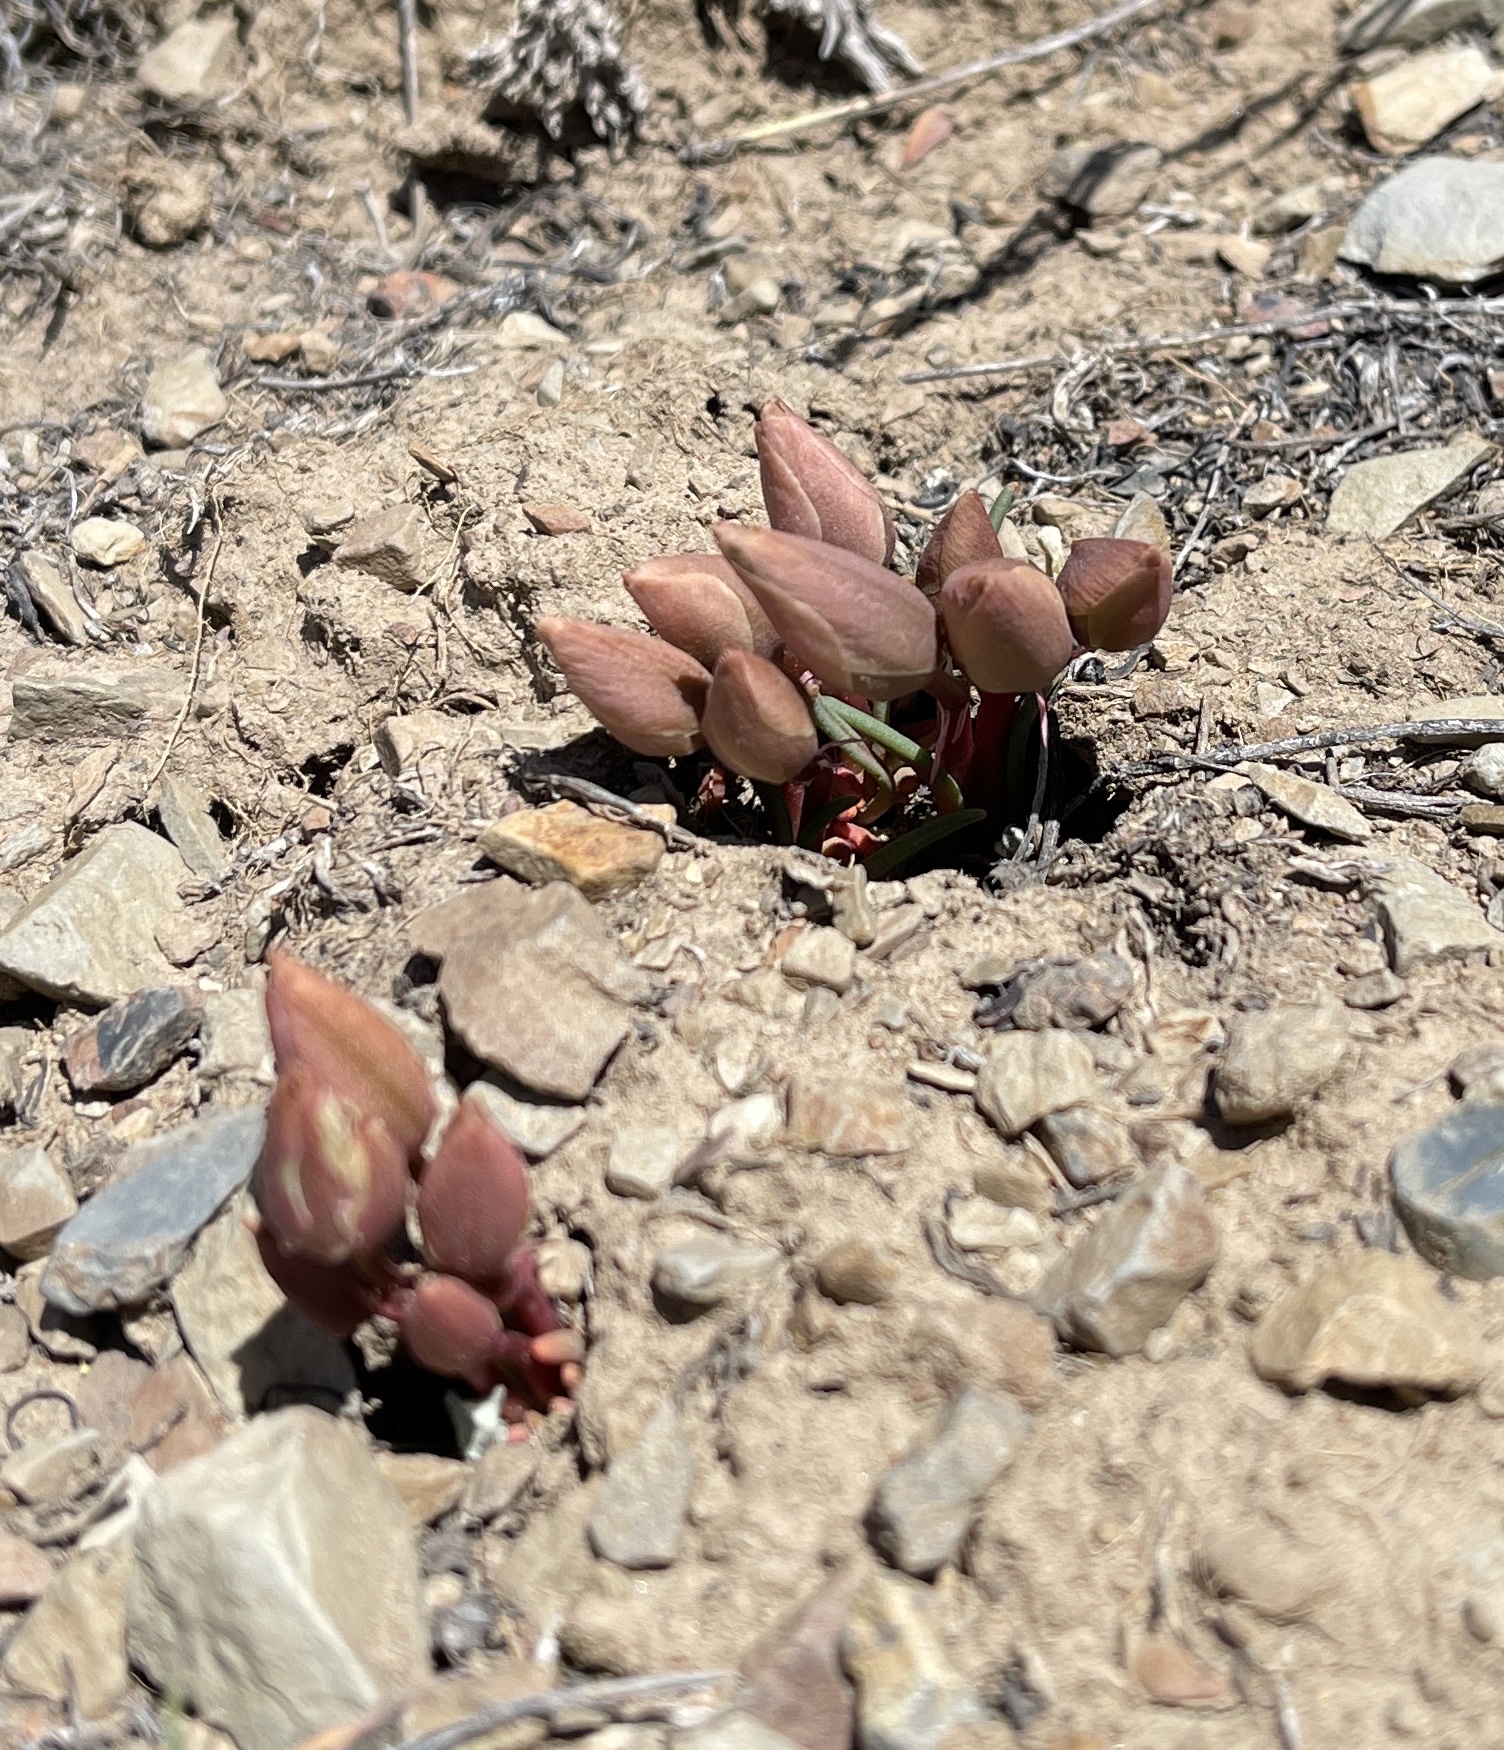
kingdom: Plantae
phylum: Tracheophyta
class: Magnoliopsida
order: Caryophyllales
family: Montiaceae
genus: Lewisia
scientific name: Lewisia rediviva
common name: Bitter-root
